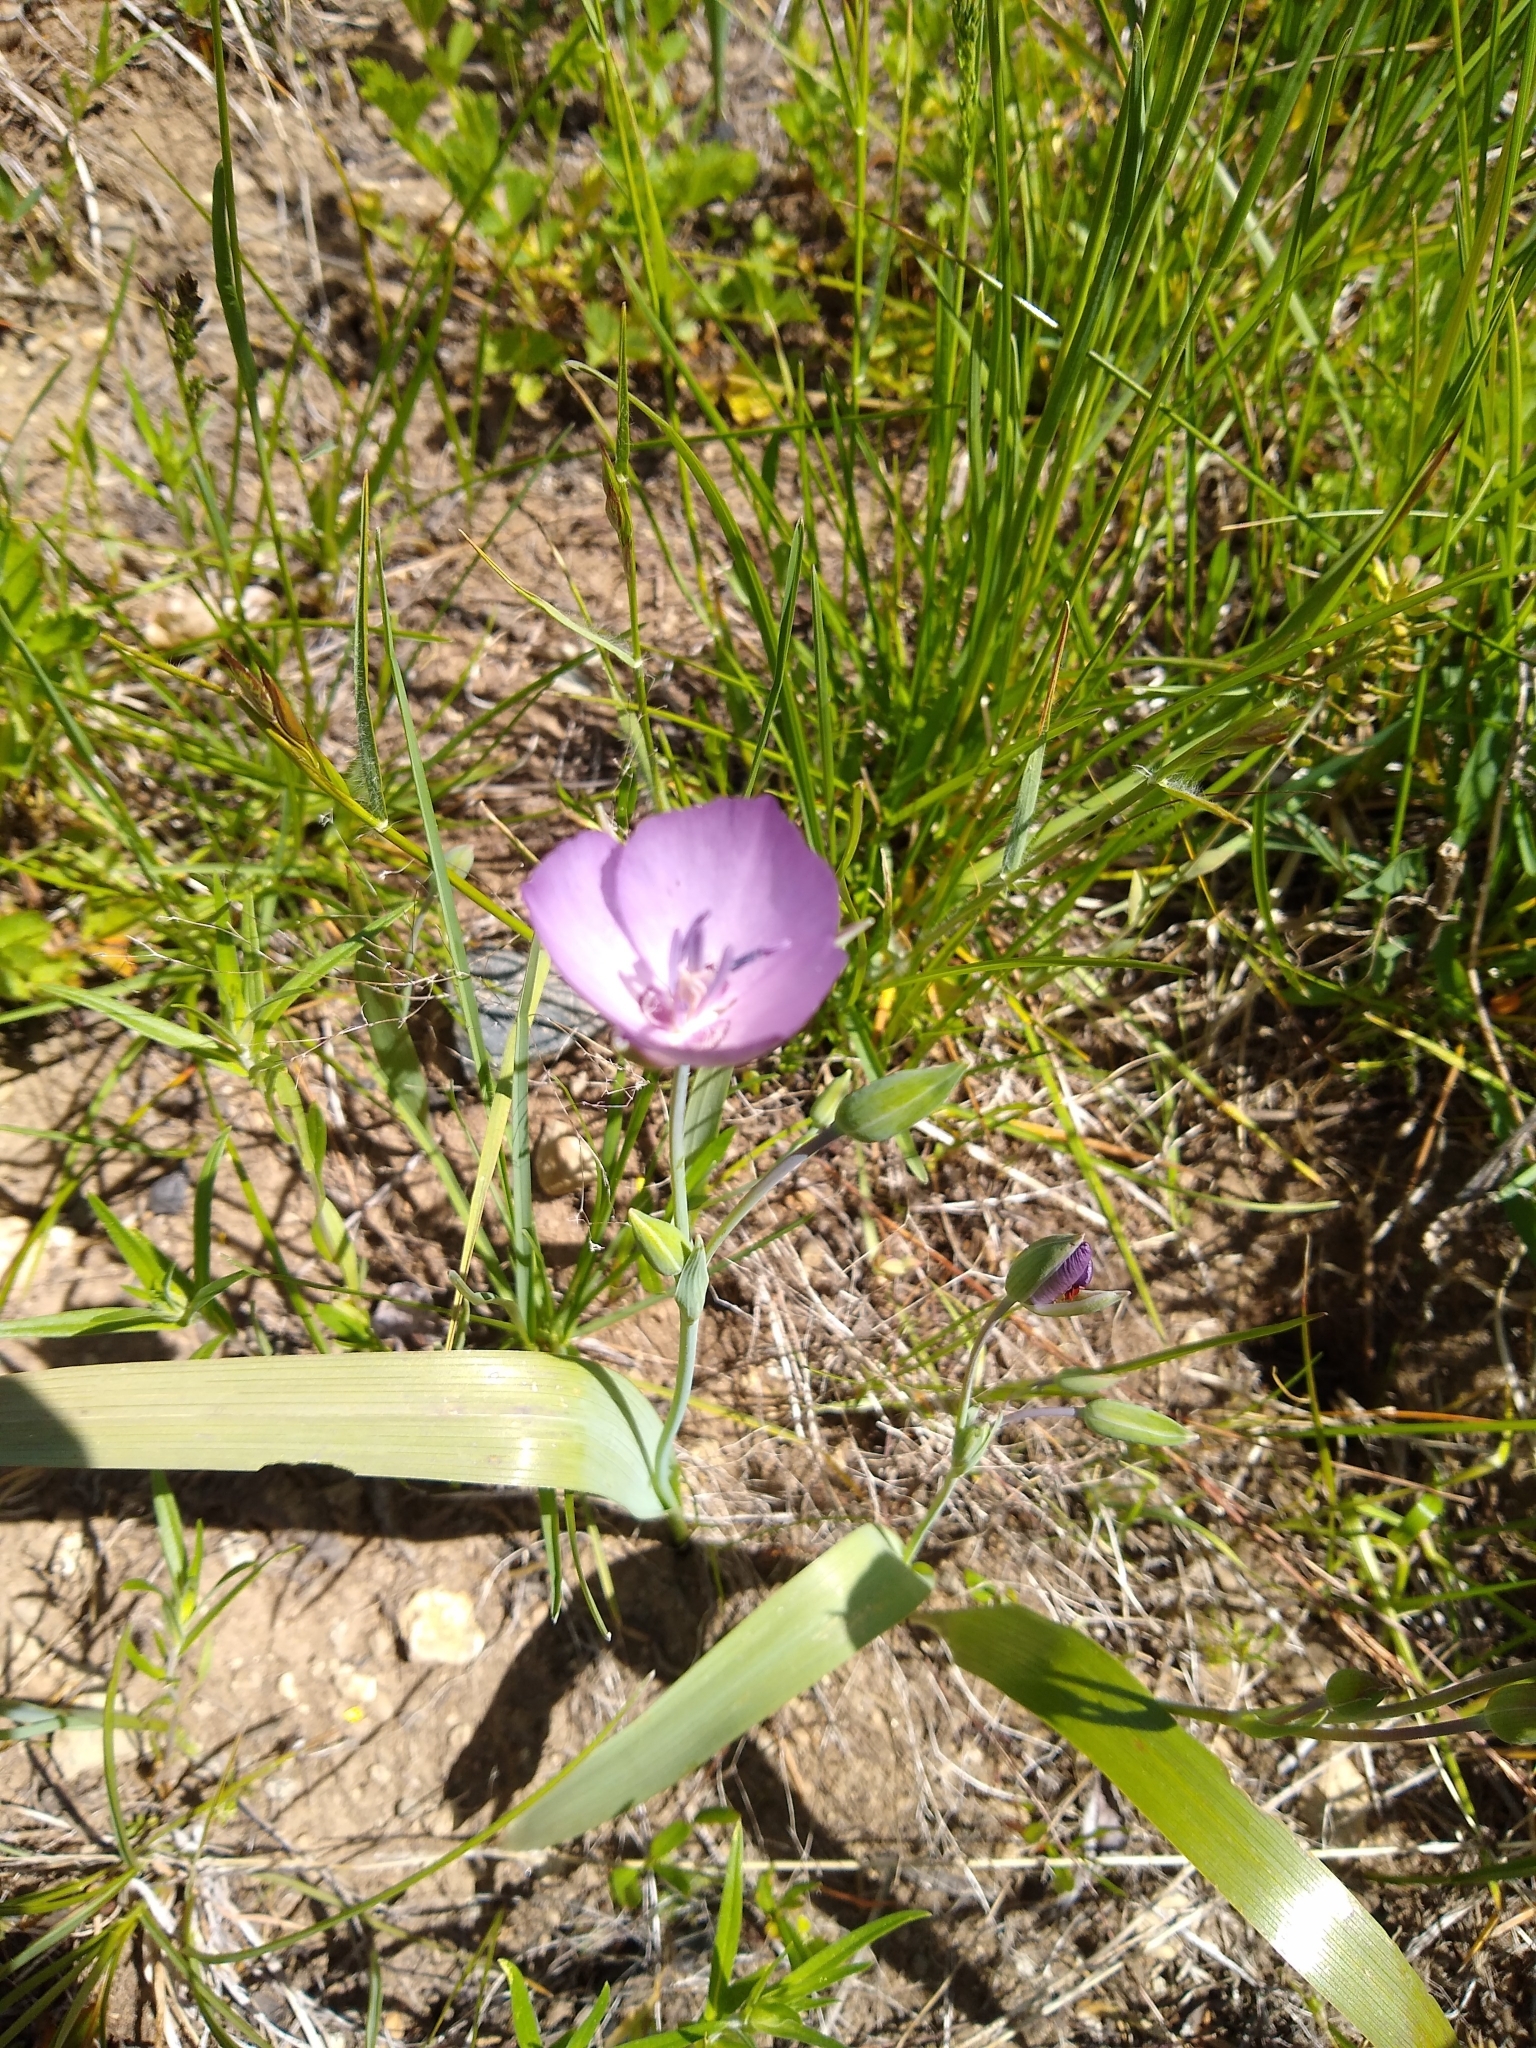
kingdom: Plantae
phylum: Tracheophyta
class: Liliopsida
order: Liliales
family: Liliaceae
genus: Calochortus
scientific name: Calochortus nudus
